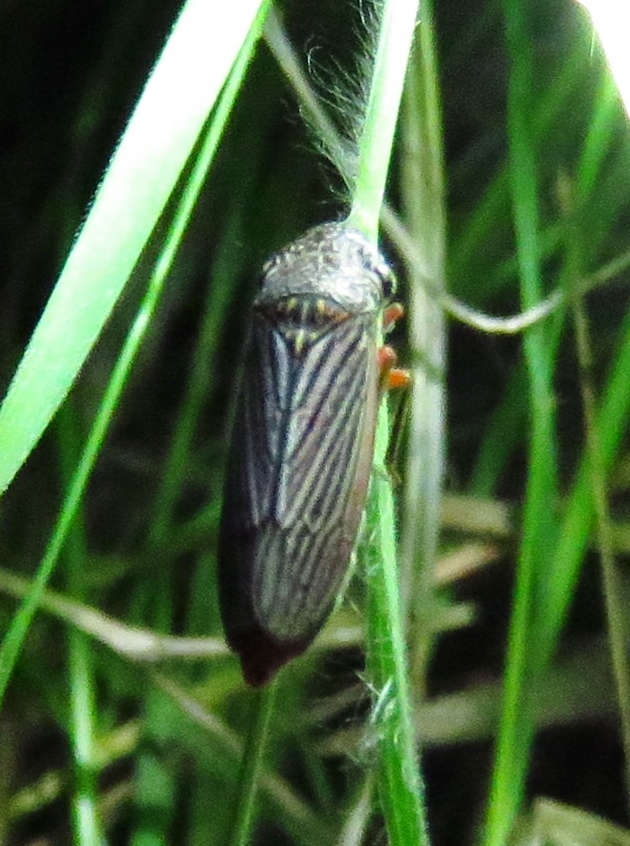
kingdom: Animalia
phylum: Arthropoda
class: Insecta
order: Hemiptera
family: Cicadellidae
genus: Cuerna
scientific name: Cuerna costalis
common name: Lateral-lined sharpshooter
